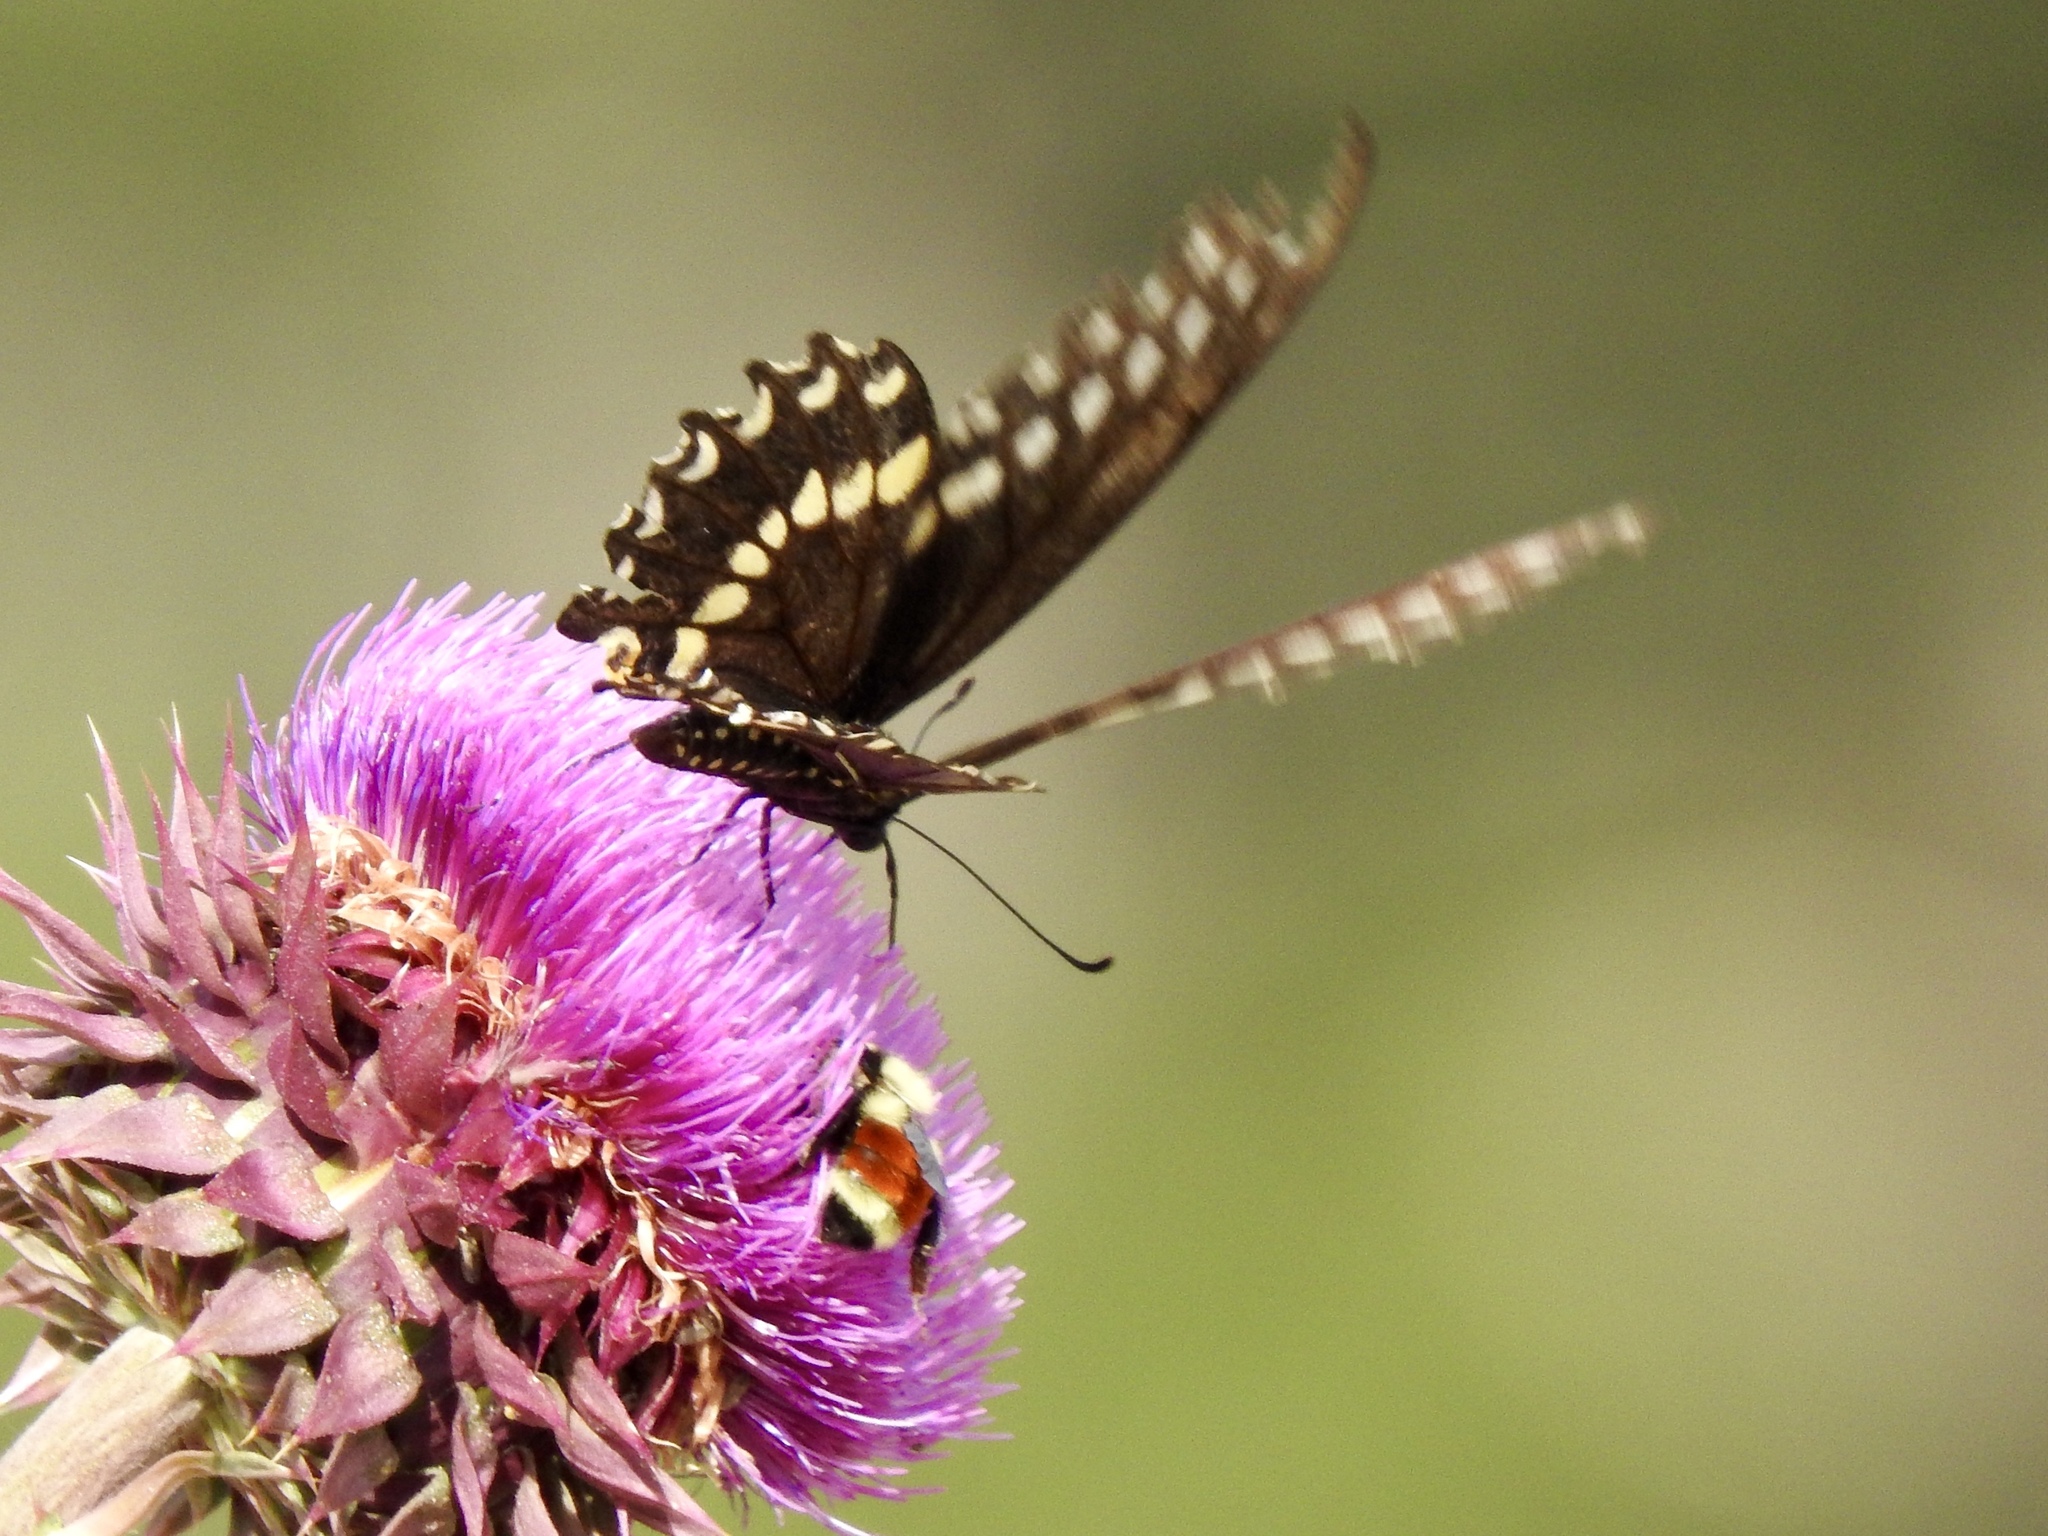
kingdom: Animalia
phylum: Arthropoda
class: Insecta
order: Lepidoptera
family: Papilionidae
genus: Papilio
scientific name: Papilio polyxenes
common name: Black swallowtail
